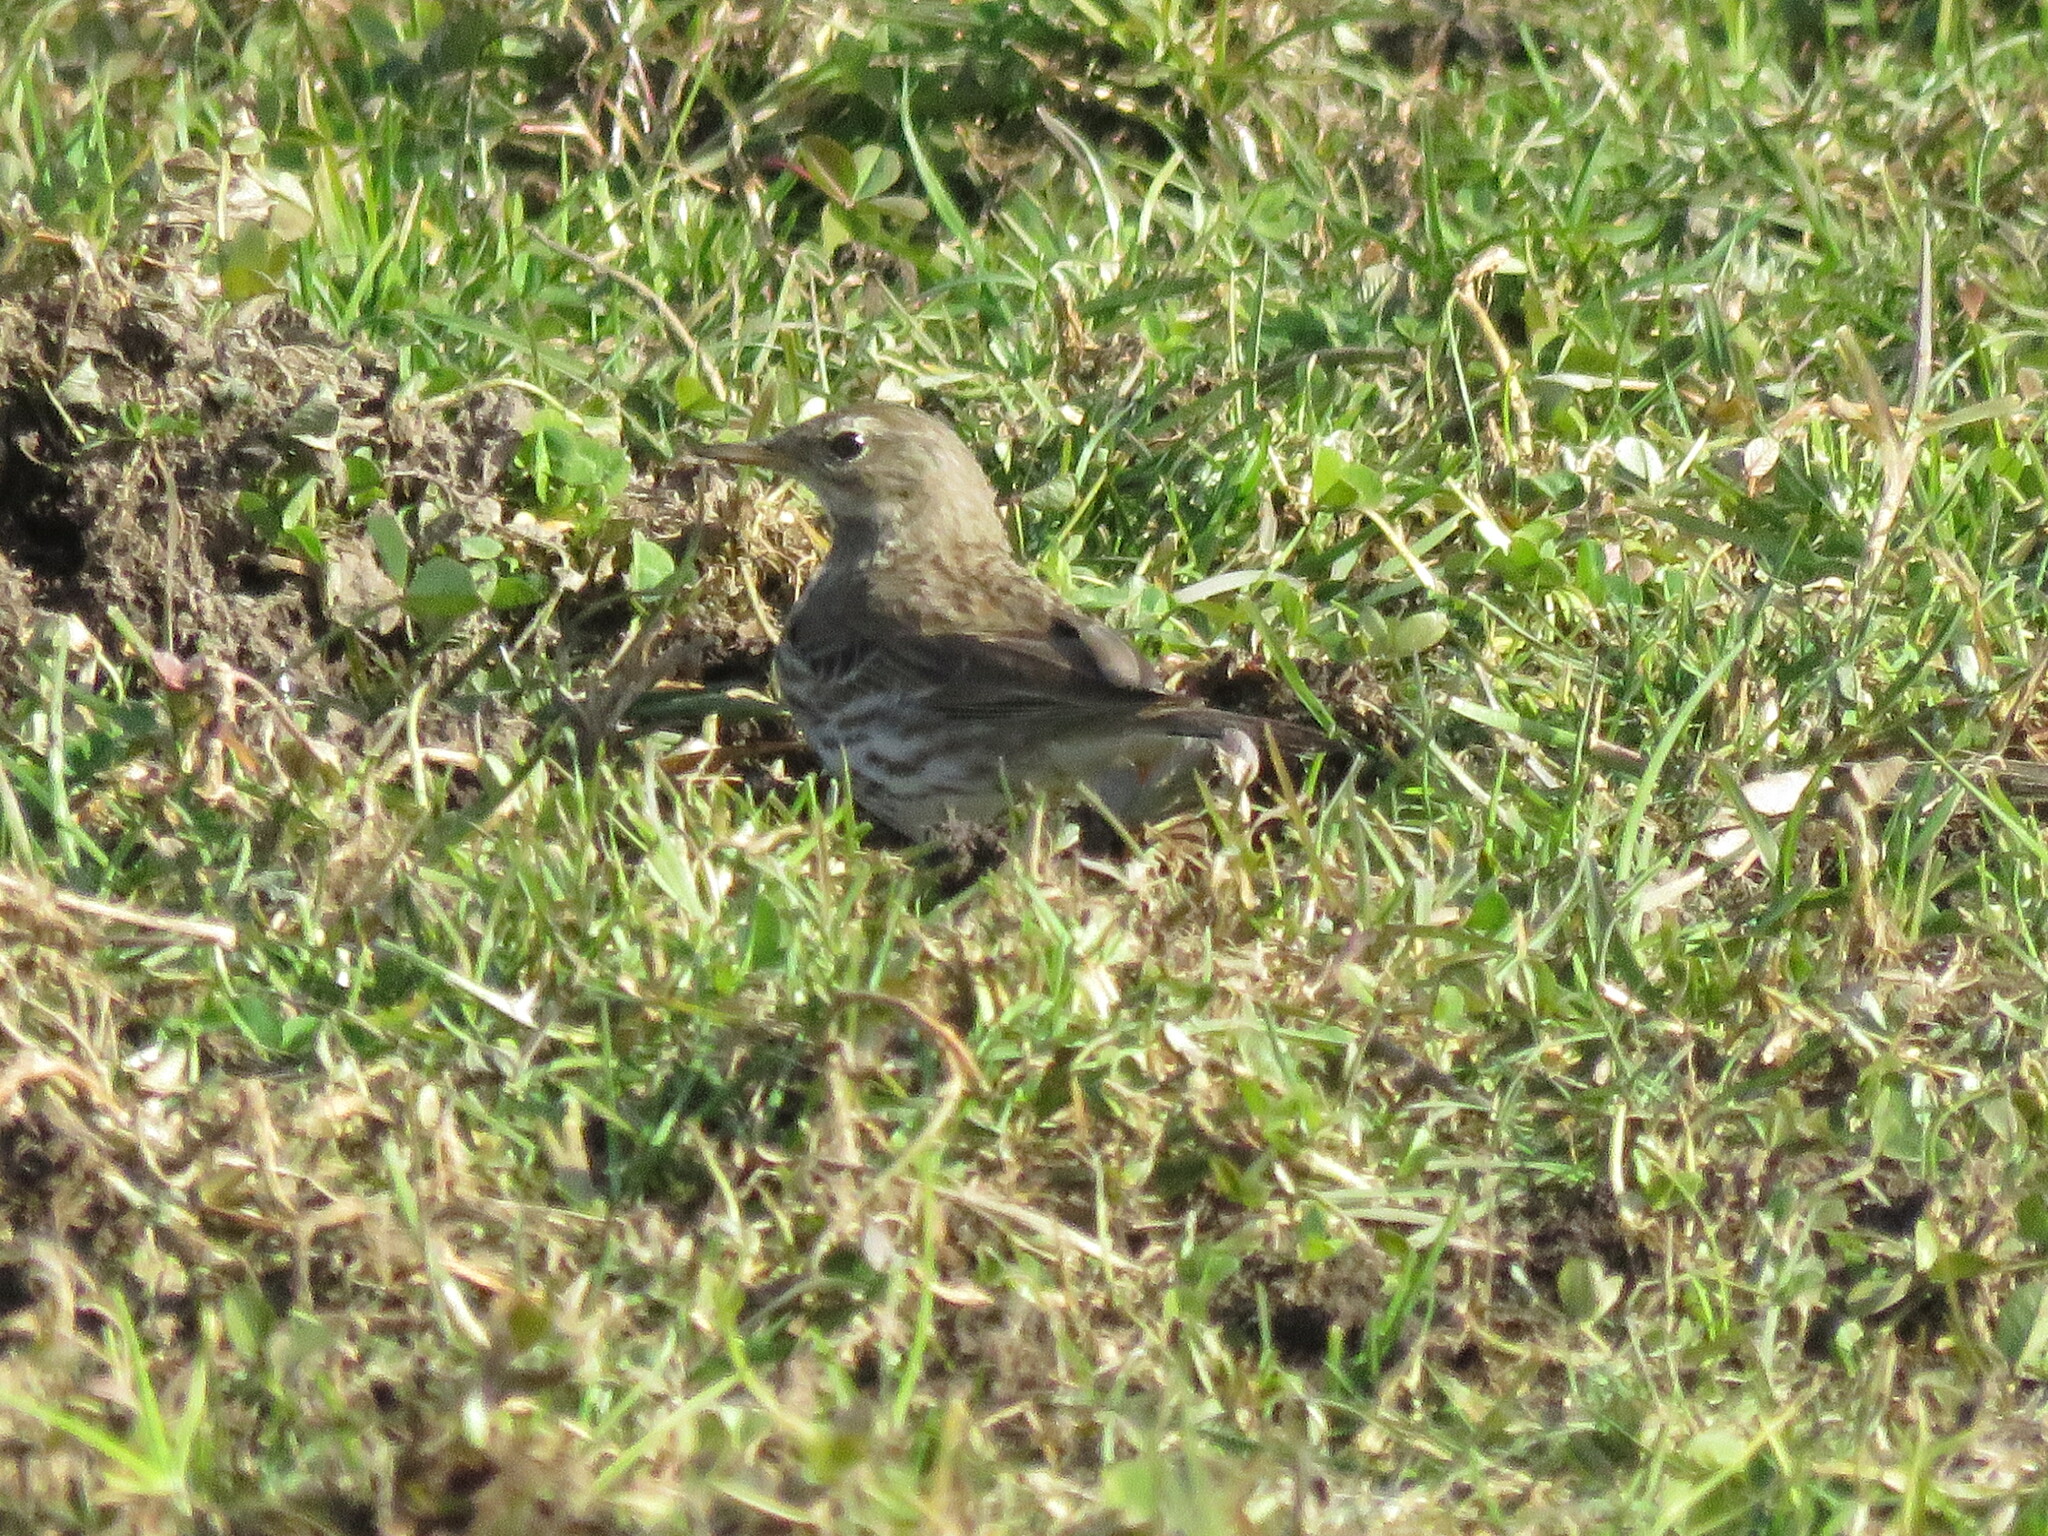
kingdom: Animalia
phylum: Chordata
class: Aves
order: Passeriformes
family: Motacillidae
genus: Anthus
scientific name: Anthus spinoletta
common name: Water pipit
